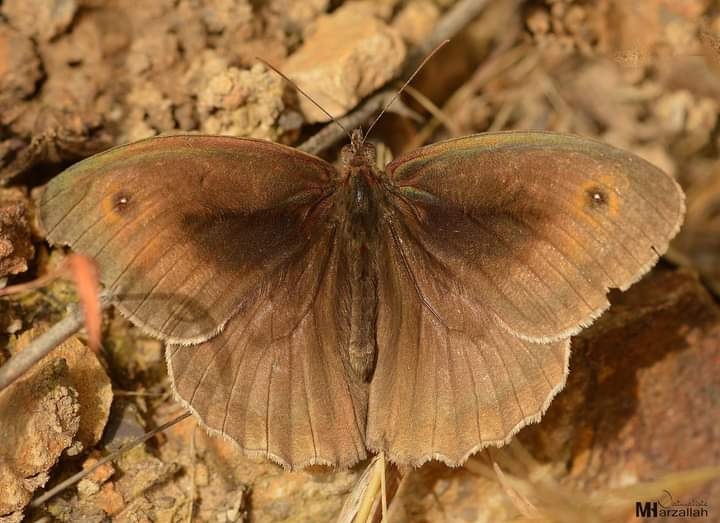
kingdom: Animalia
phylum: Arthropoda
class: Insecta
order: Lepidoptera
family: Nymphalidae
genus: Maniola
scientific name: Maniola jurtina
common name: Meadow brown
